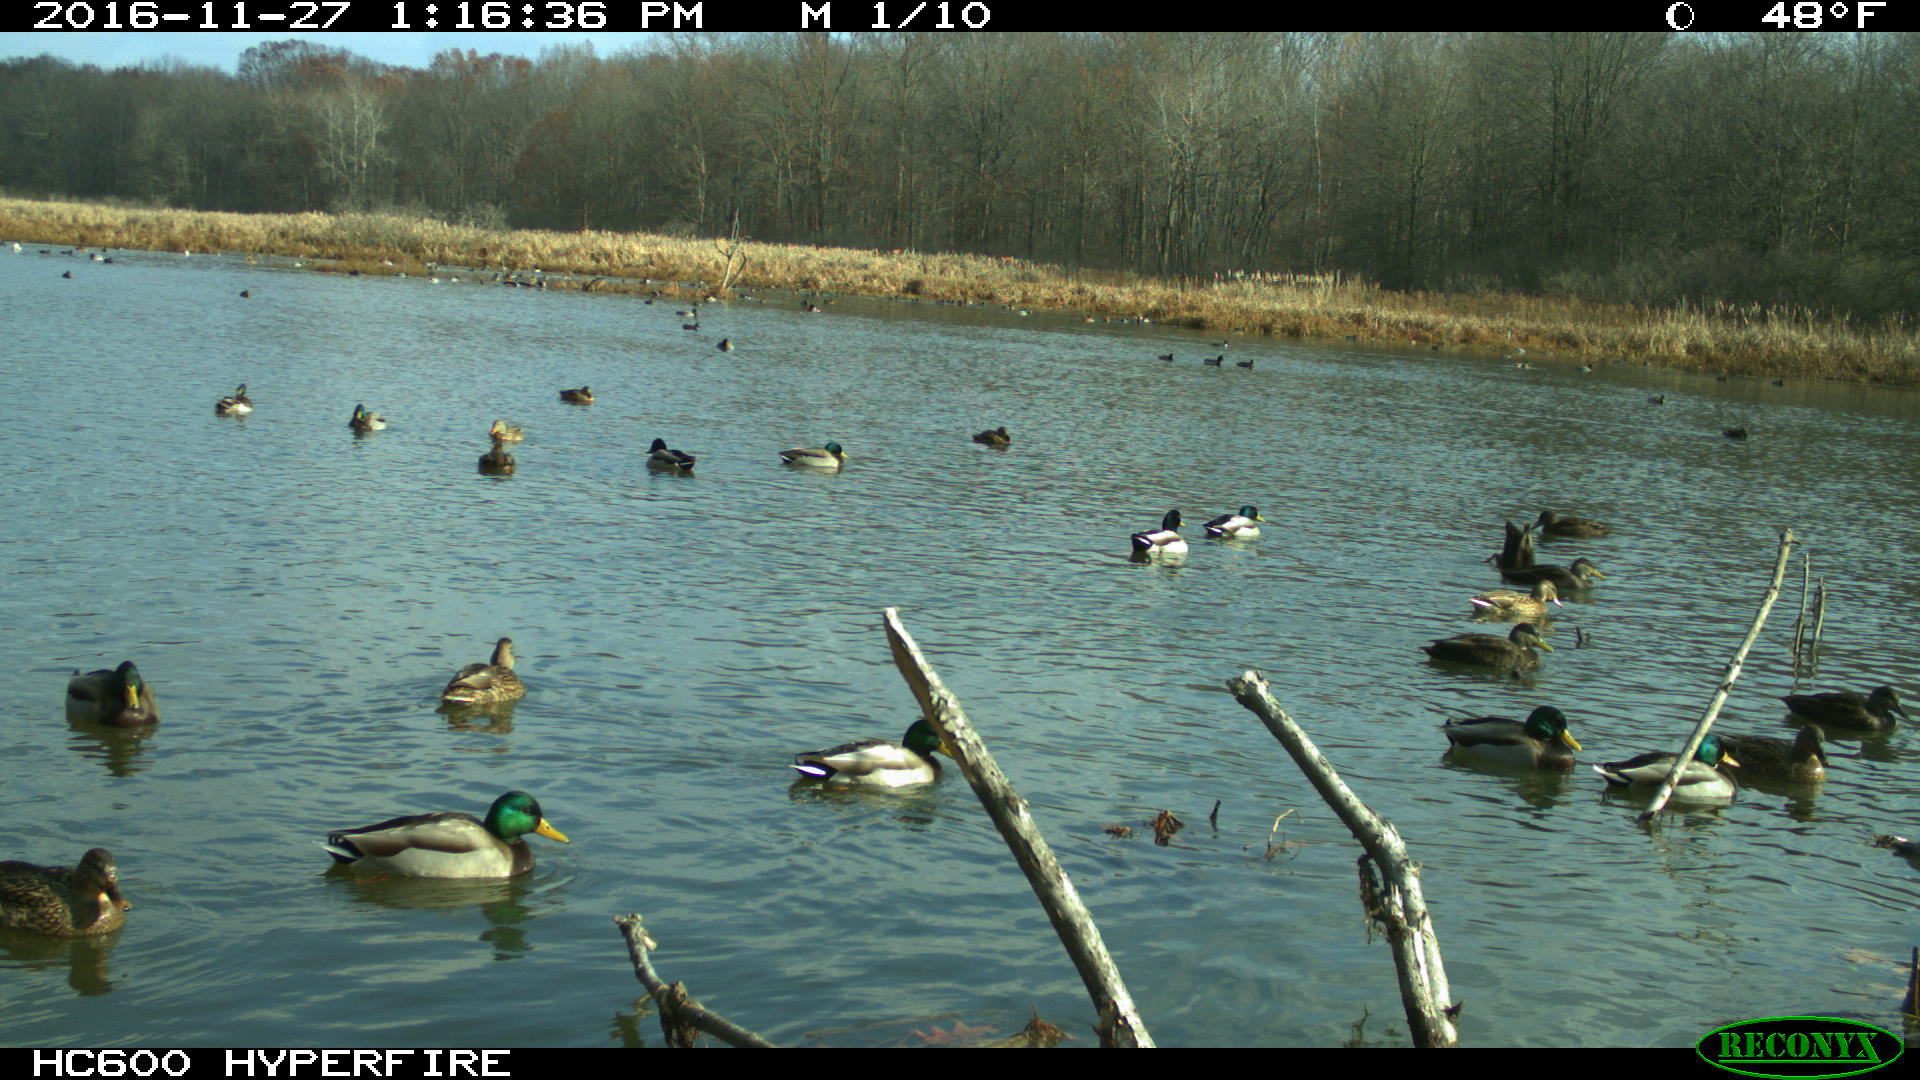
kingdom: Animalia
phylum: Chordata
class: Aves
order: Anseriformes
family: Anatidae
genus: Anas
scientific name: Anas platyrhynchos
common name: Mallard
